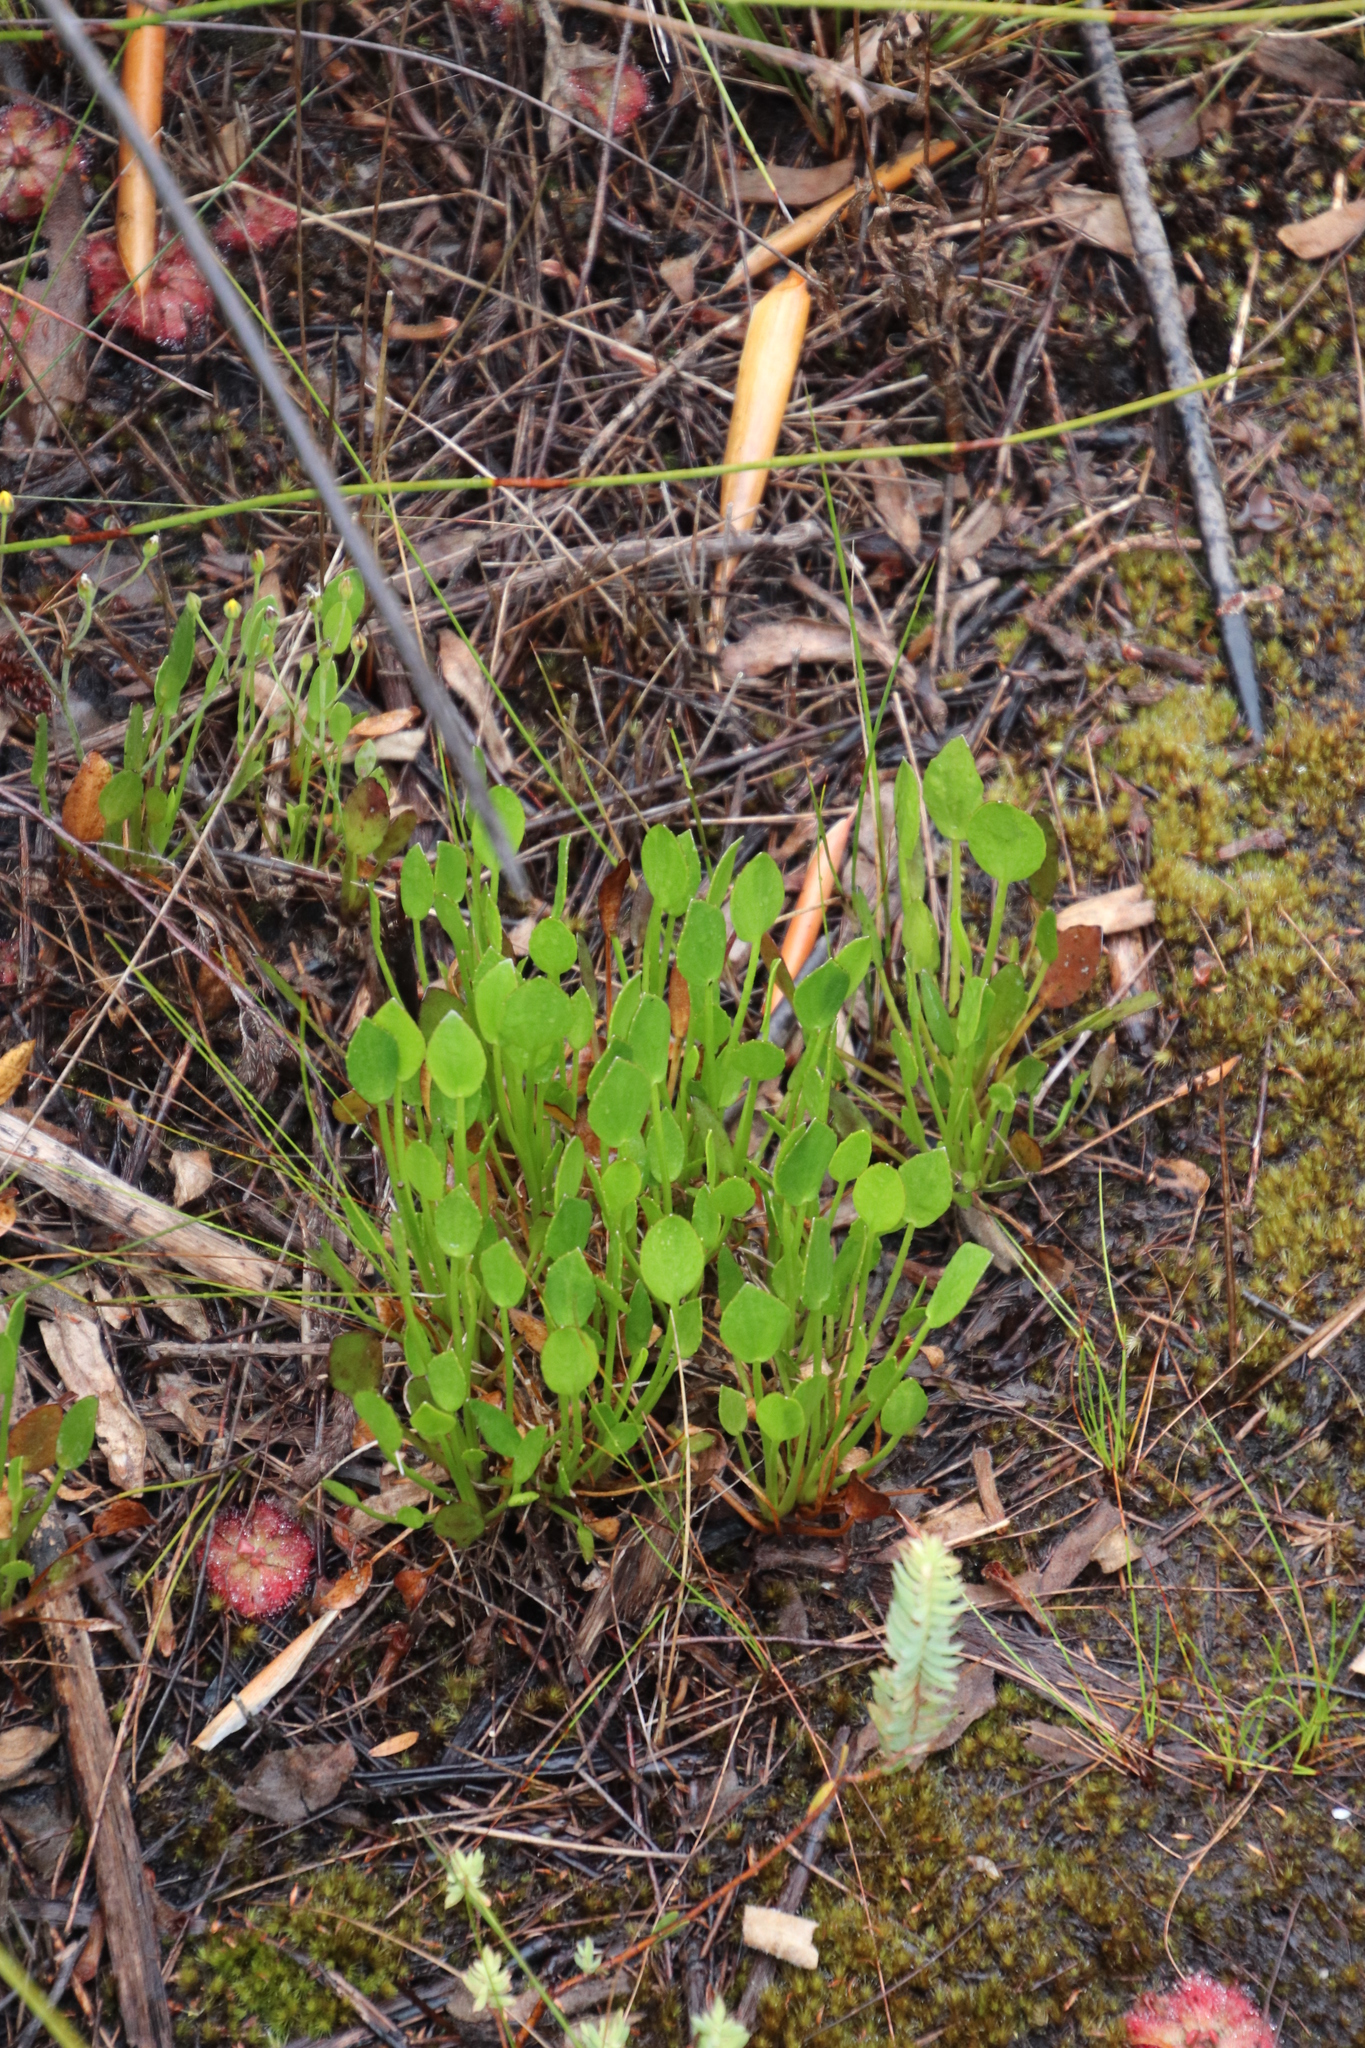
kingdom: Plantae
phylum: Tracheophyta
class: Magnoliopsida
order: Asterales
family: Menyanthaceae
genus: Villarsia
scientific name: Villarsia manningiana
